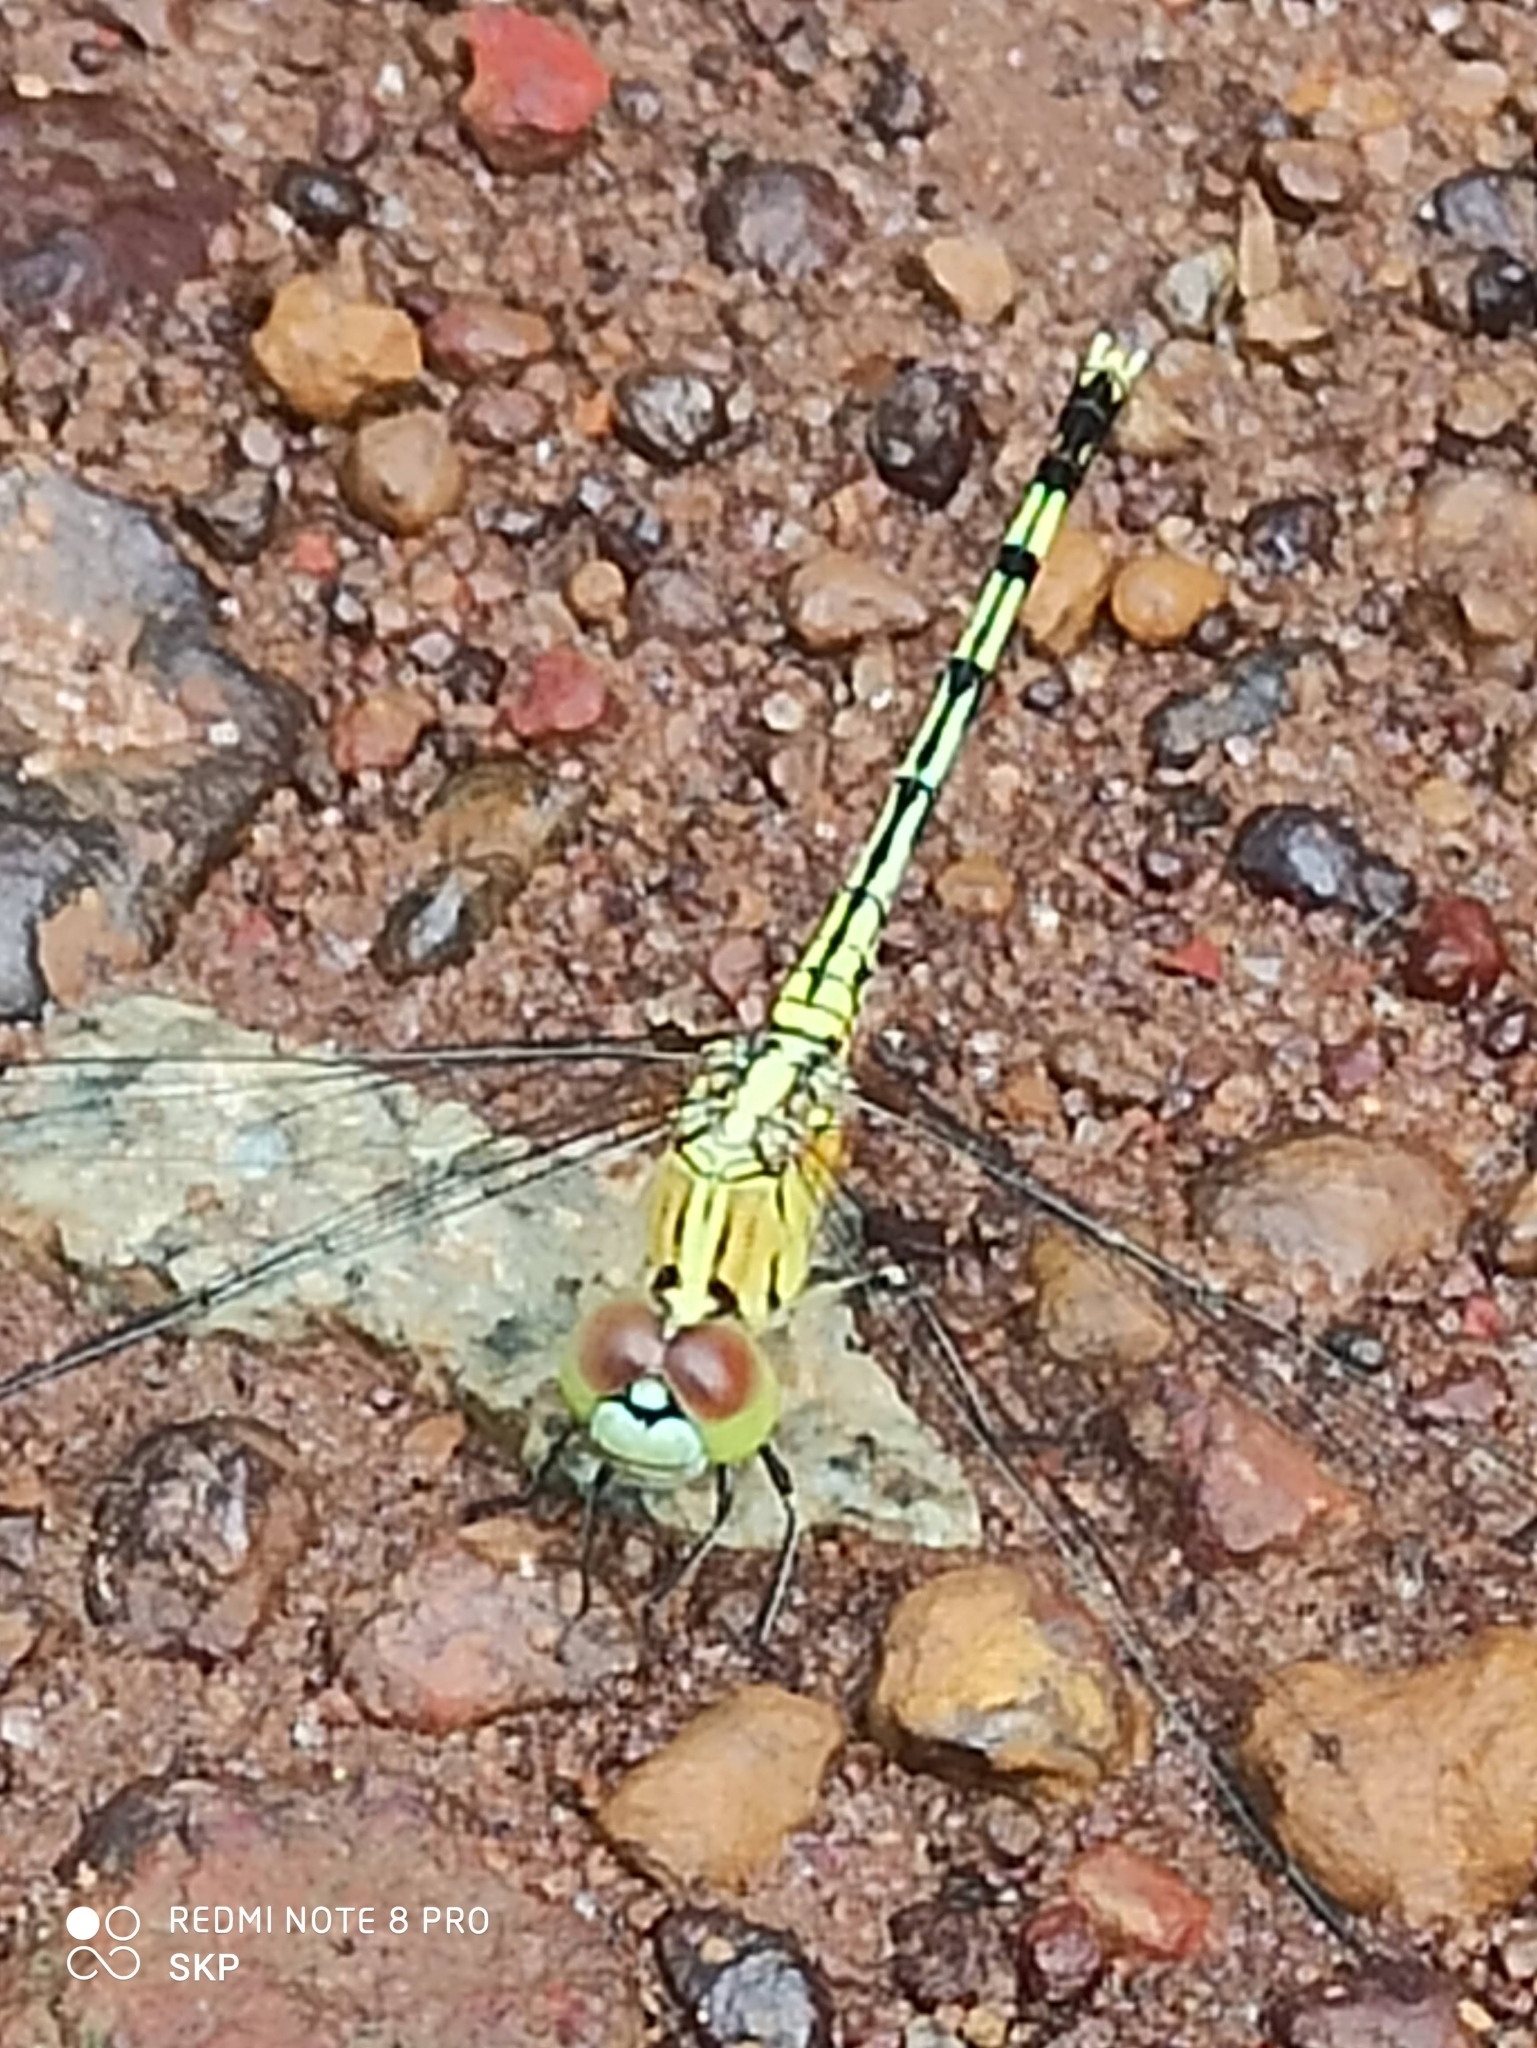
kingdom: Animalia
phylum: Arthropoda
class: Insecta
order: Odonata
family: Libellulidae
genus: Diplacodes
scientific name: Diplacodes trivialis
